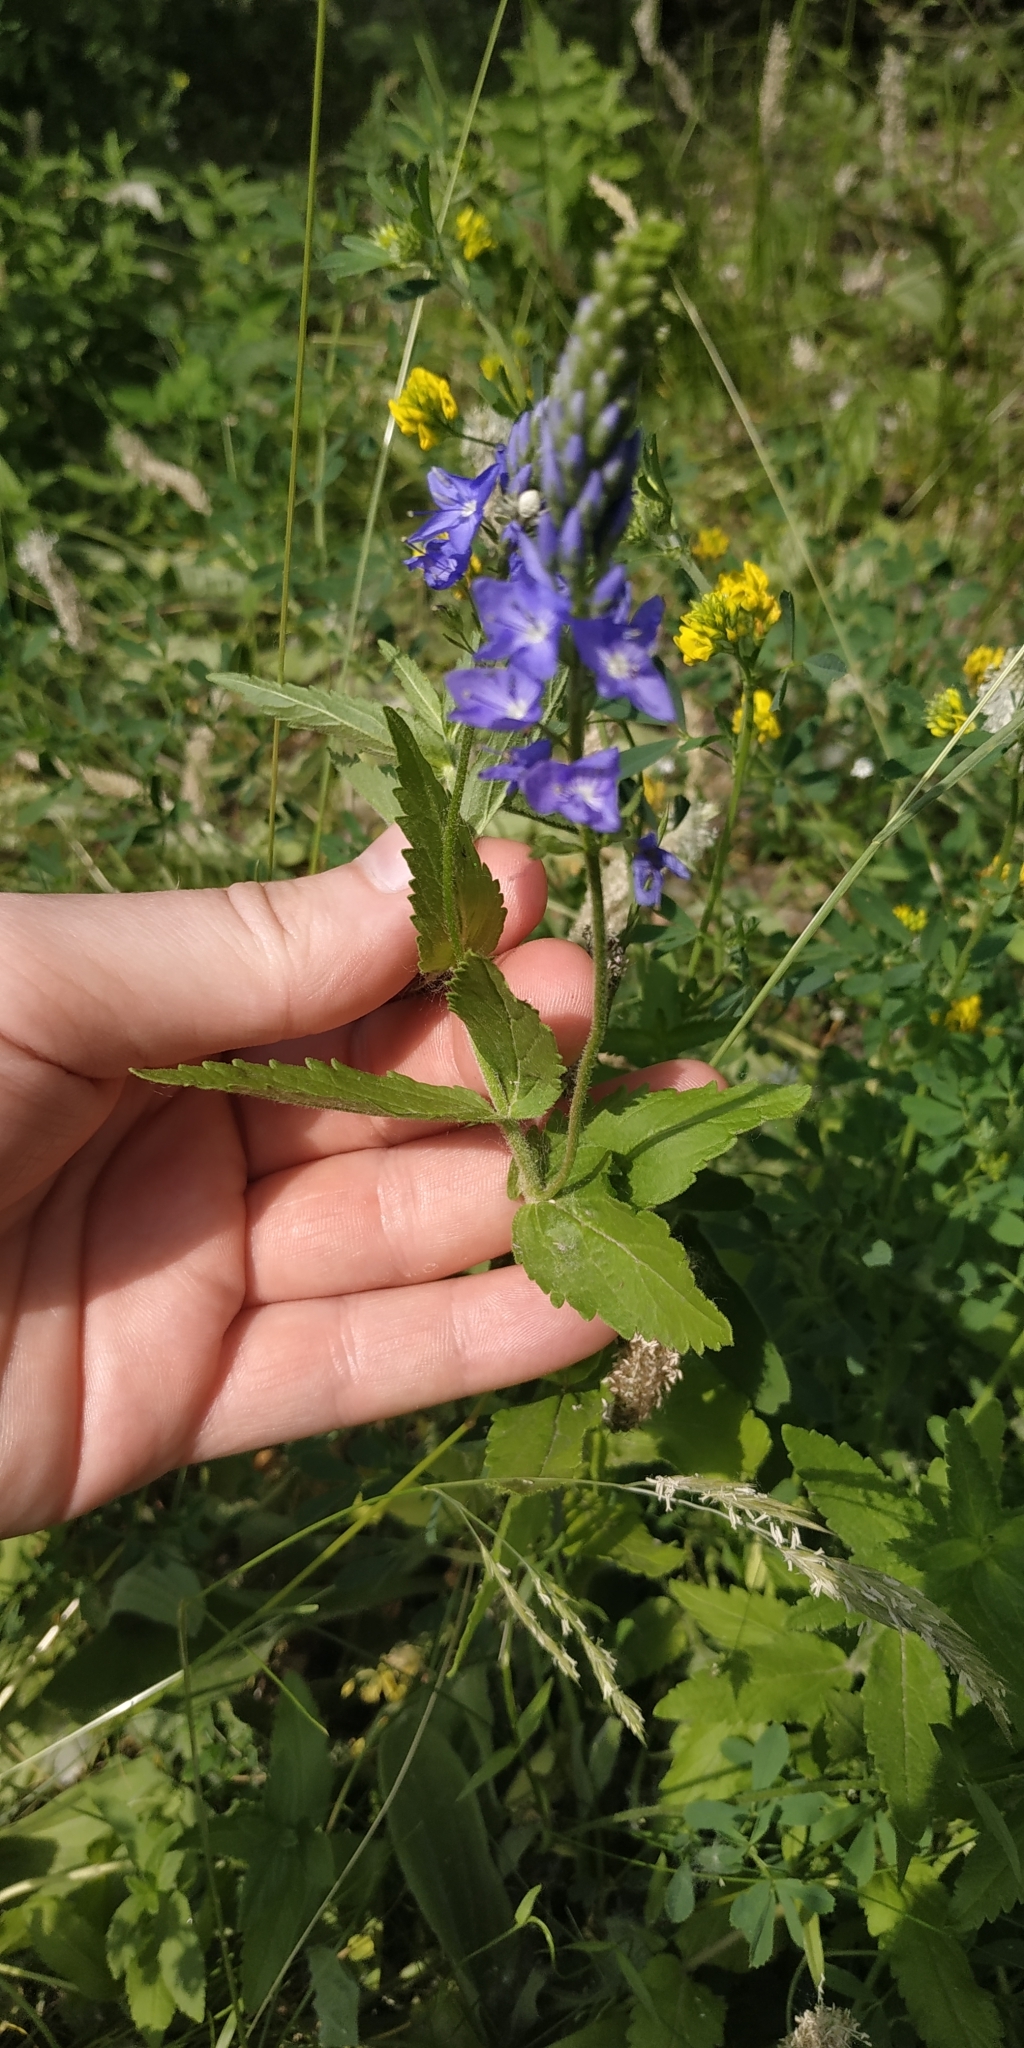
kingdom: Plantae
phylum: Tracheophyta
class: Magnoliopsida
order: Lamiales
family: Plantaginaceae
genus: Veronica
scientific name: Veronica teucrium
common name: Large speedwell
